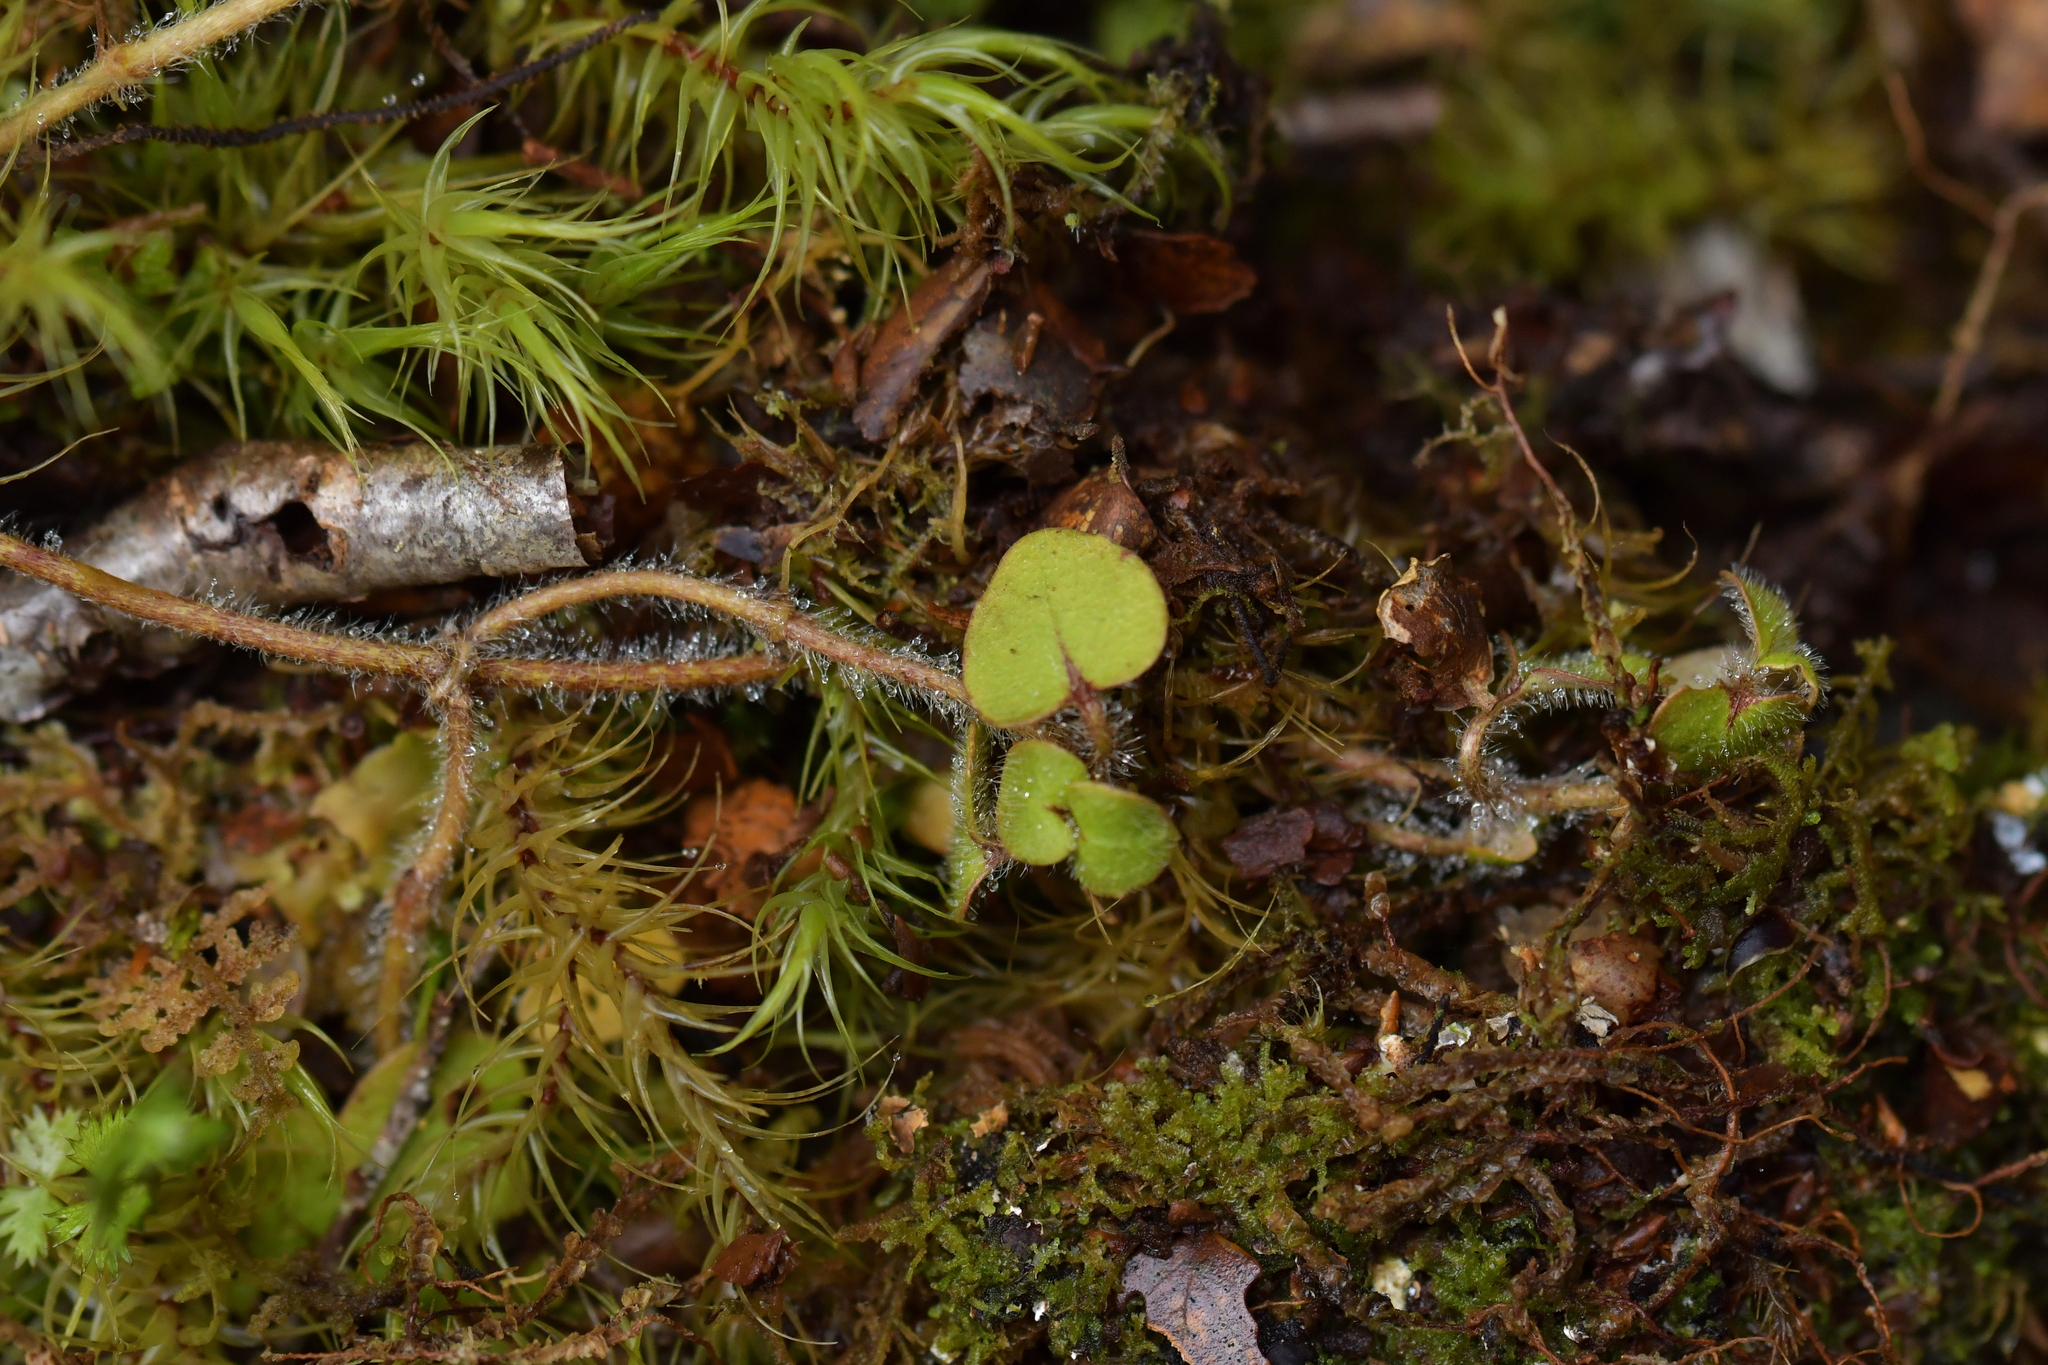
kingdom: Plantae
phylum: Tracheophyta
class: Magnoliopsida
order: Gentianales
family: Rubiaceae
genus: Nertera
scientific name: Nertera villosa
